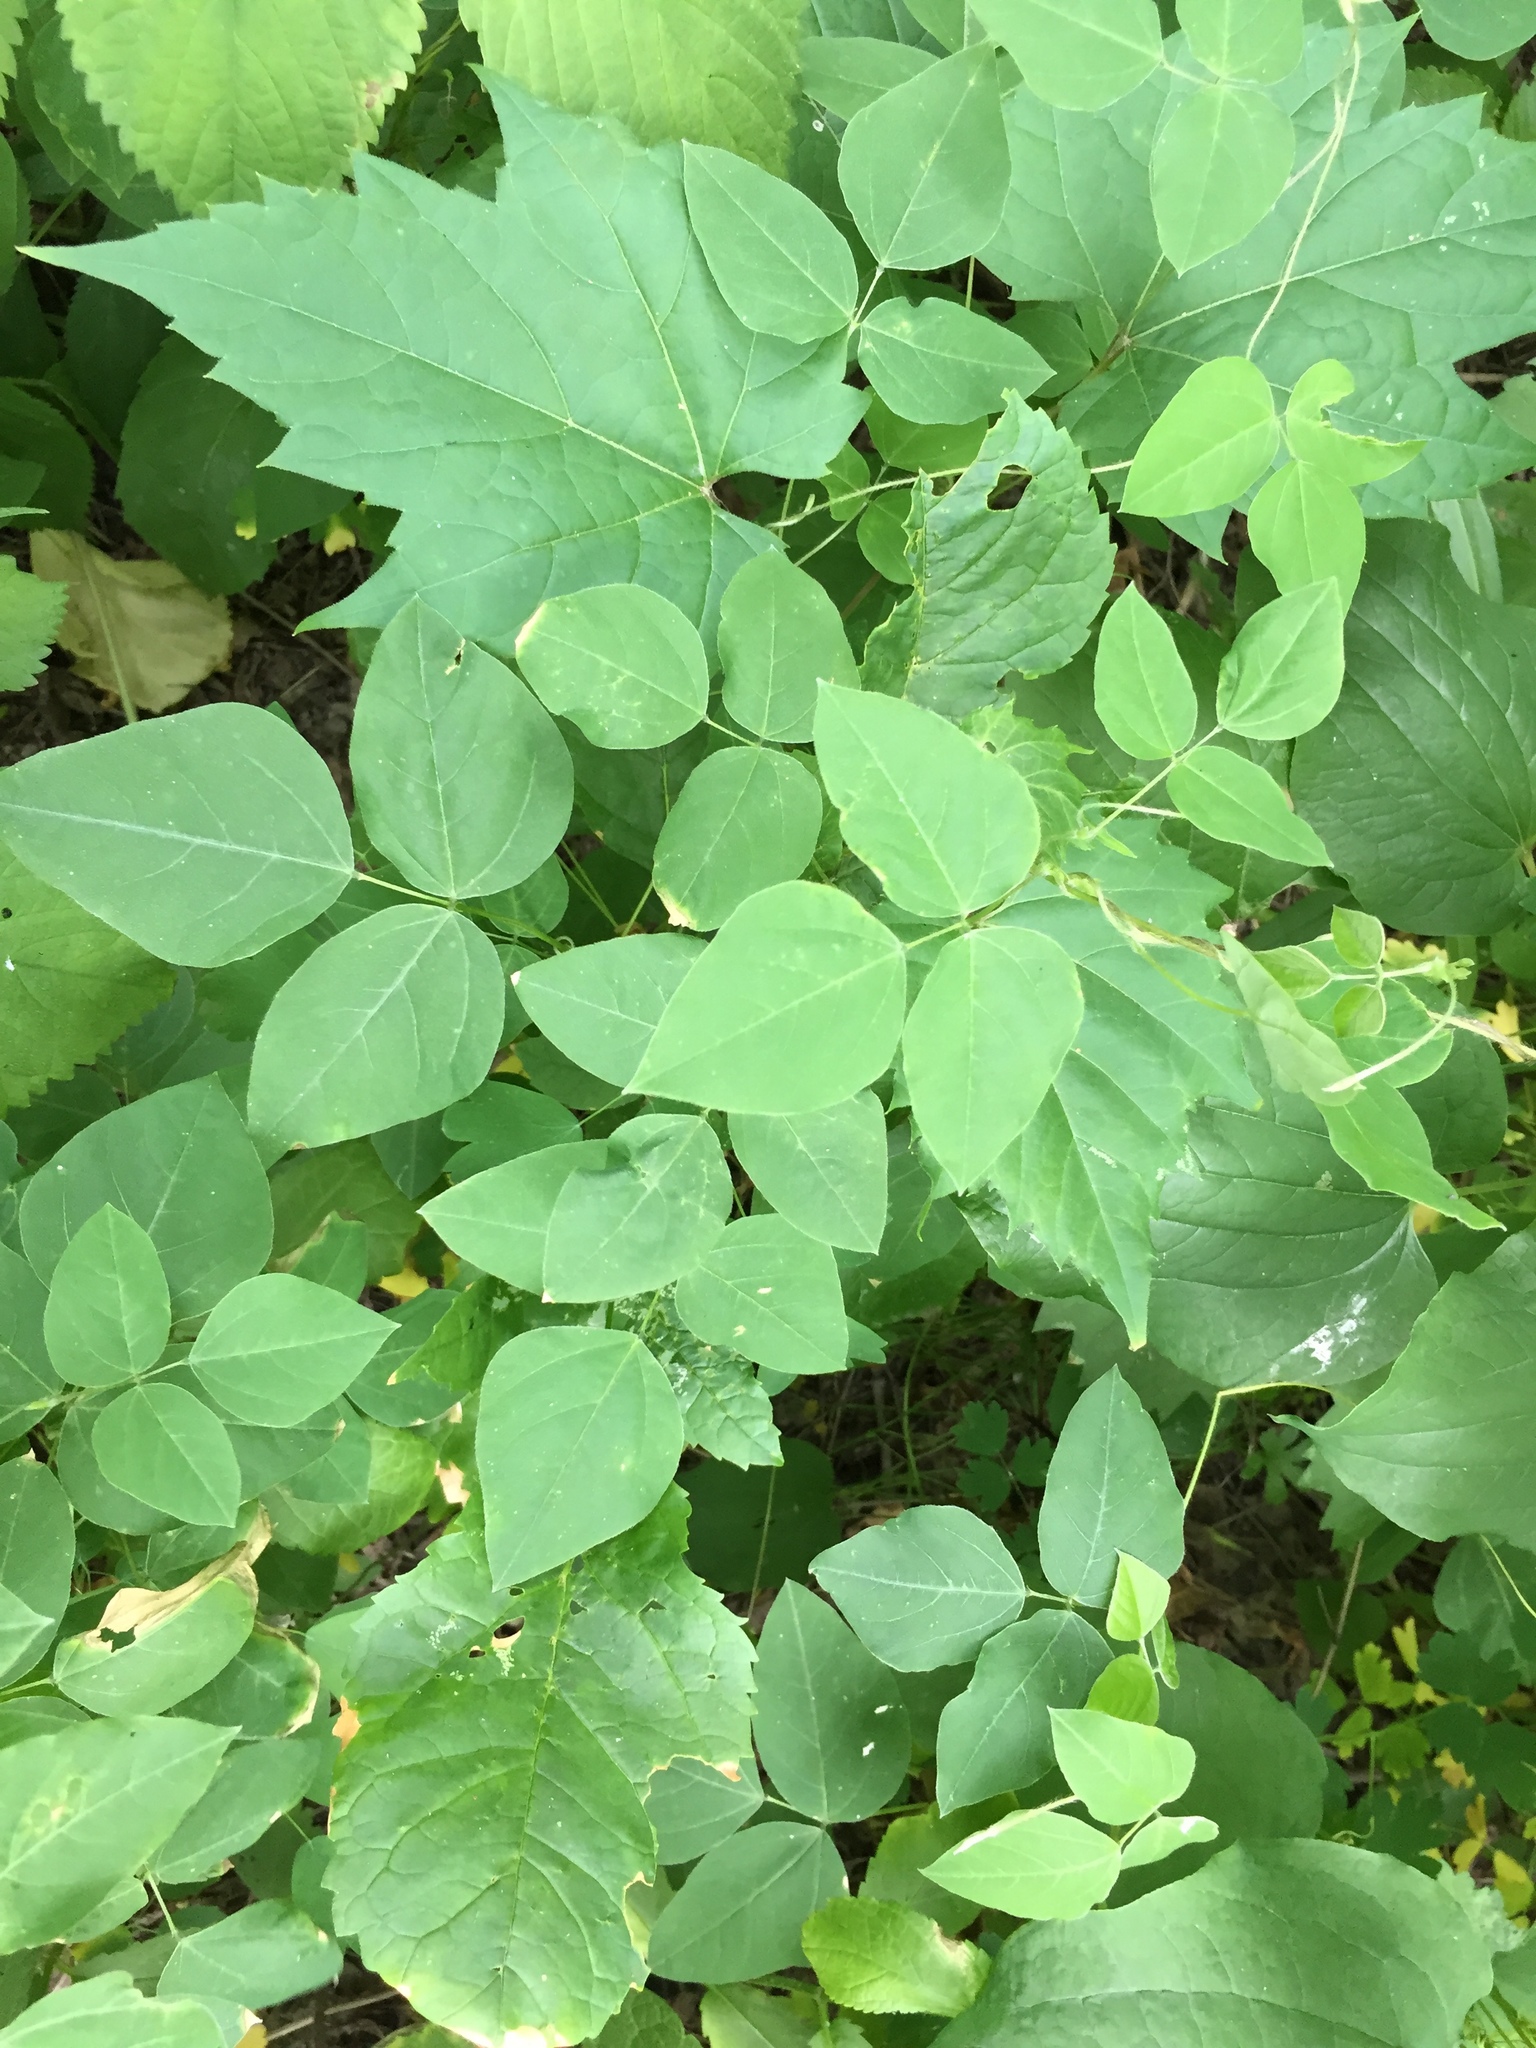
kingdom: Plantae
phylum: Tracheophyta
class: Magnoliopsida
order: Fabales
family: Fabaceae
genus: Amphicarpaea
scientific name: Amphicarpaea bracteata
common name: American hog peanut
